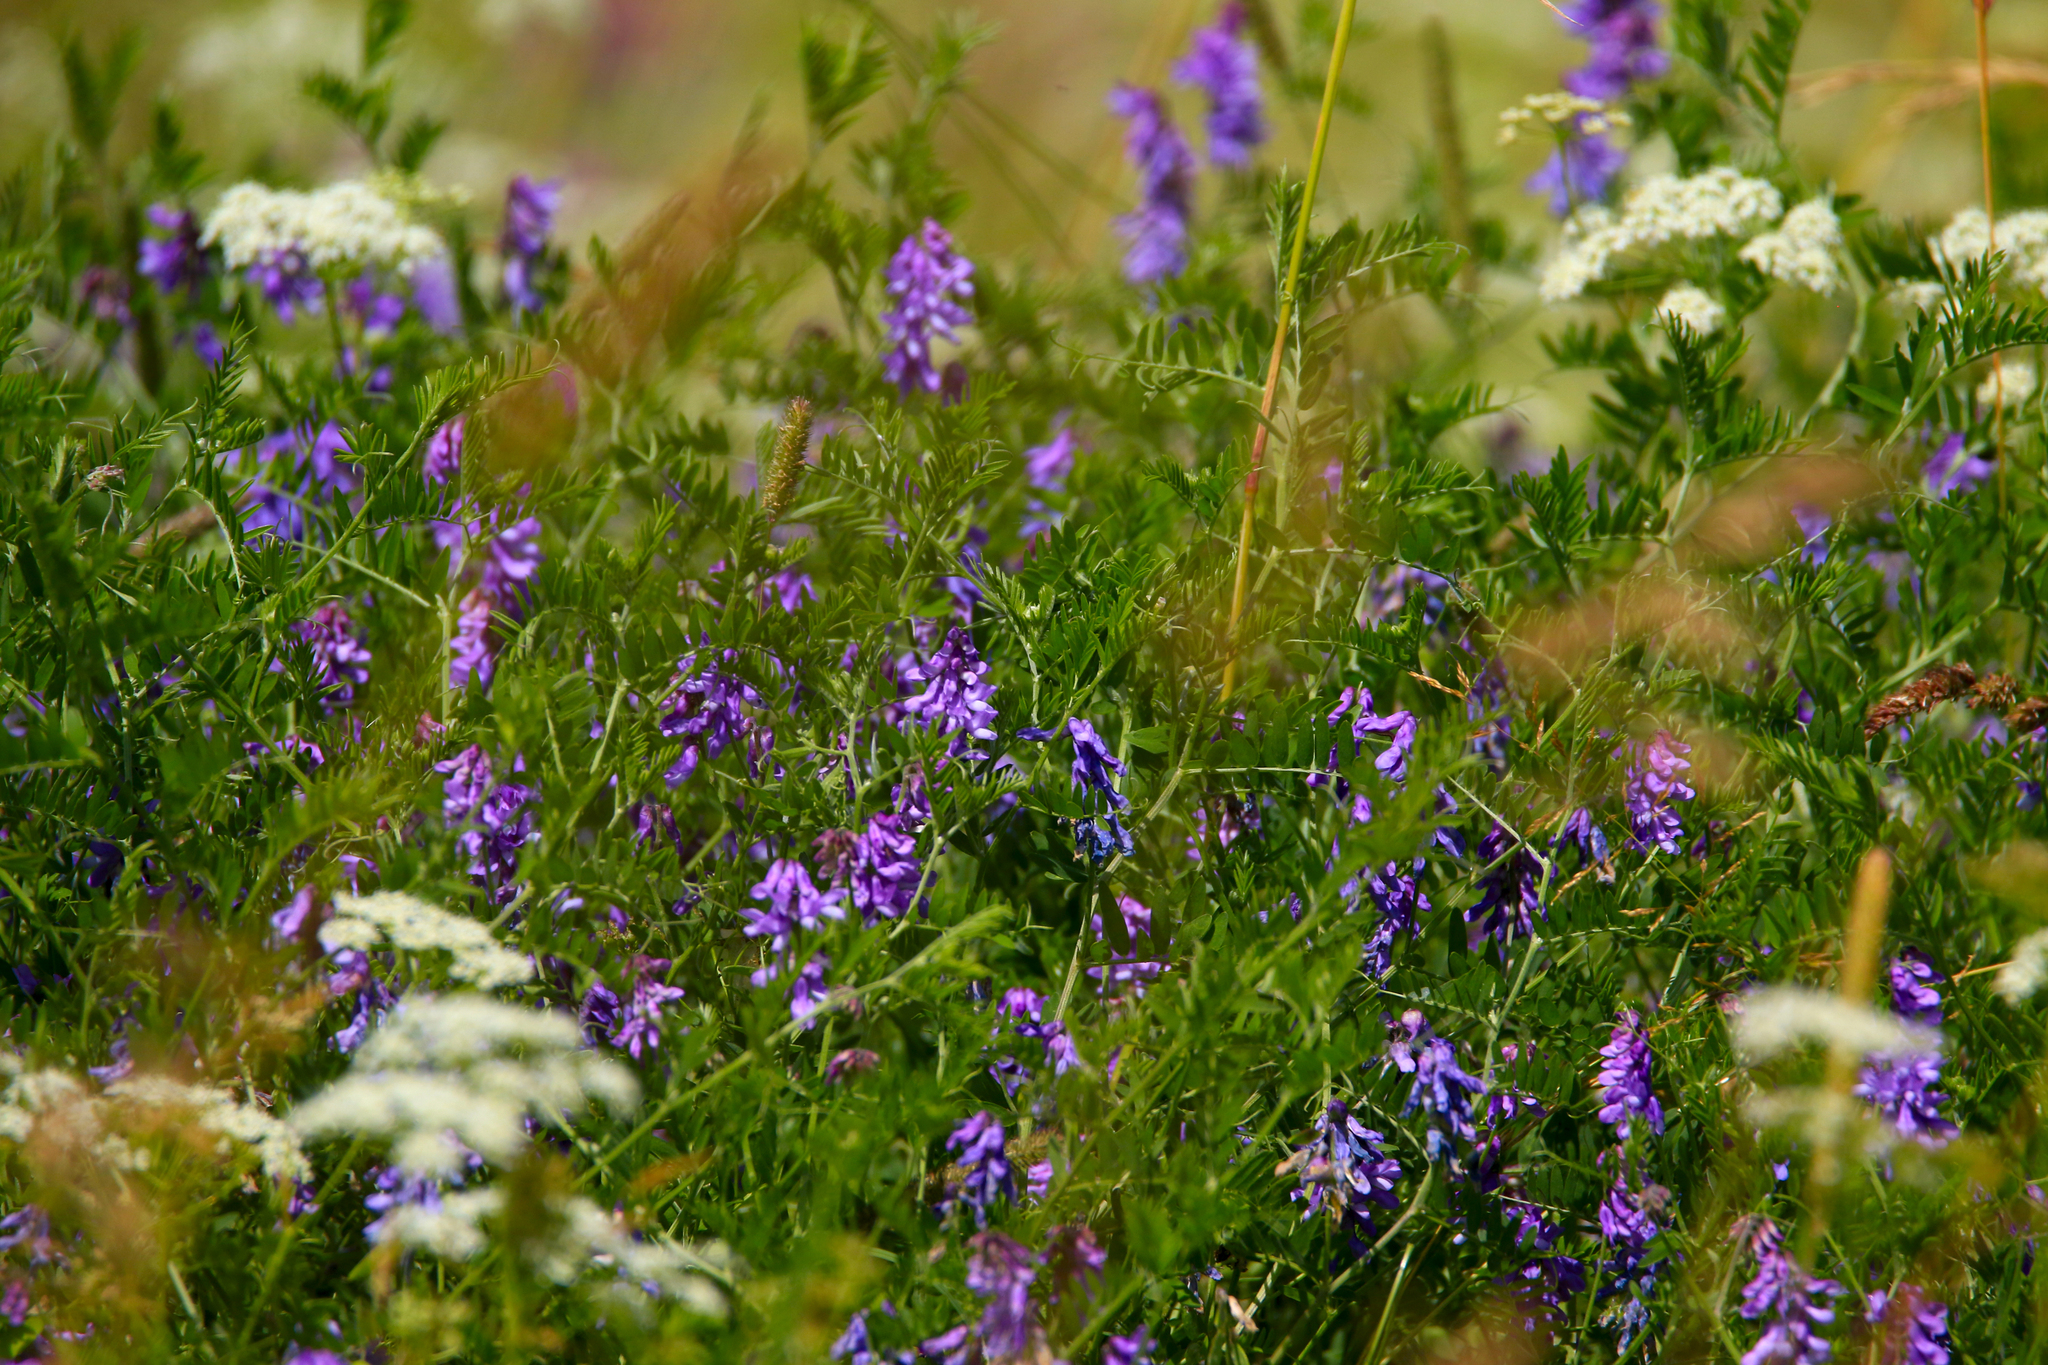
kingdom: Plantae
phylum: Tracheophyta
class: Magnoliopsida
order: Fabales
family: Fabaceae
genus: Vicia
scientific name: Vicia cracca
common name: Bird vetch
